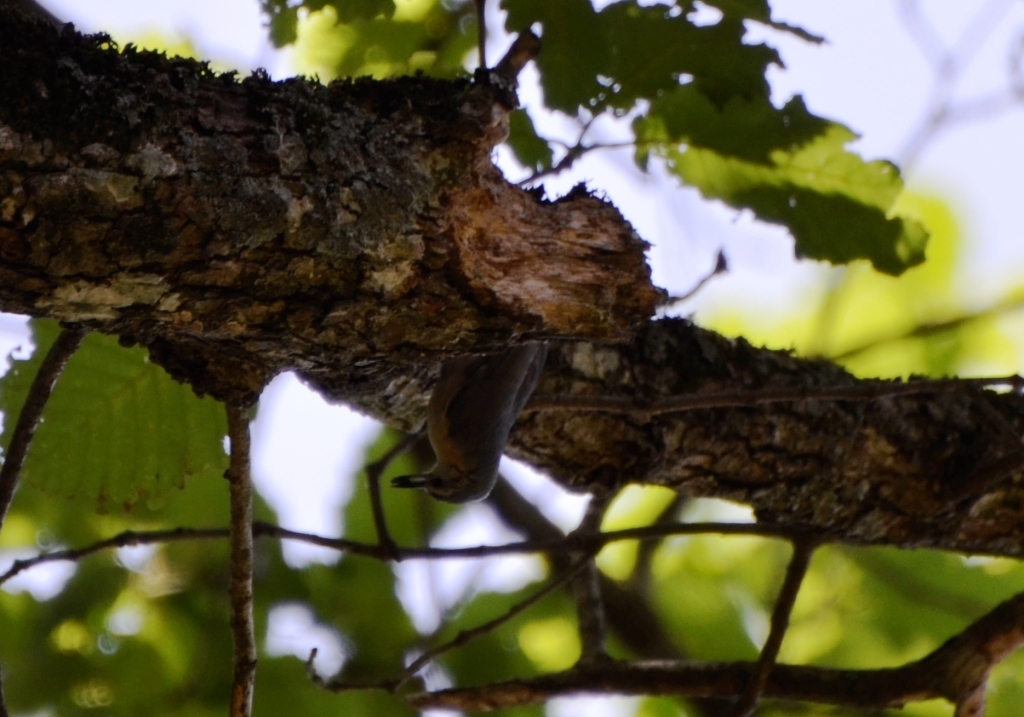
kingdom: Animalia
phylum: Chordata
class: Aves
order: Passeriformes
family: Sittidae
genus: Sitta
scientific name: Sitta ledanti
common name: Algerian nuthatch
